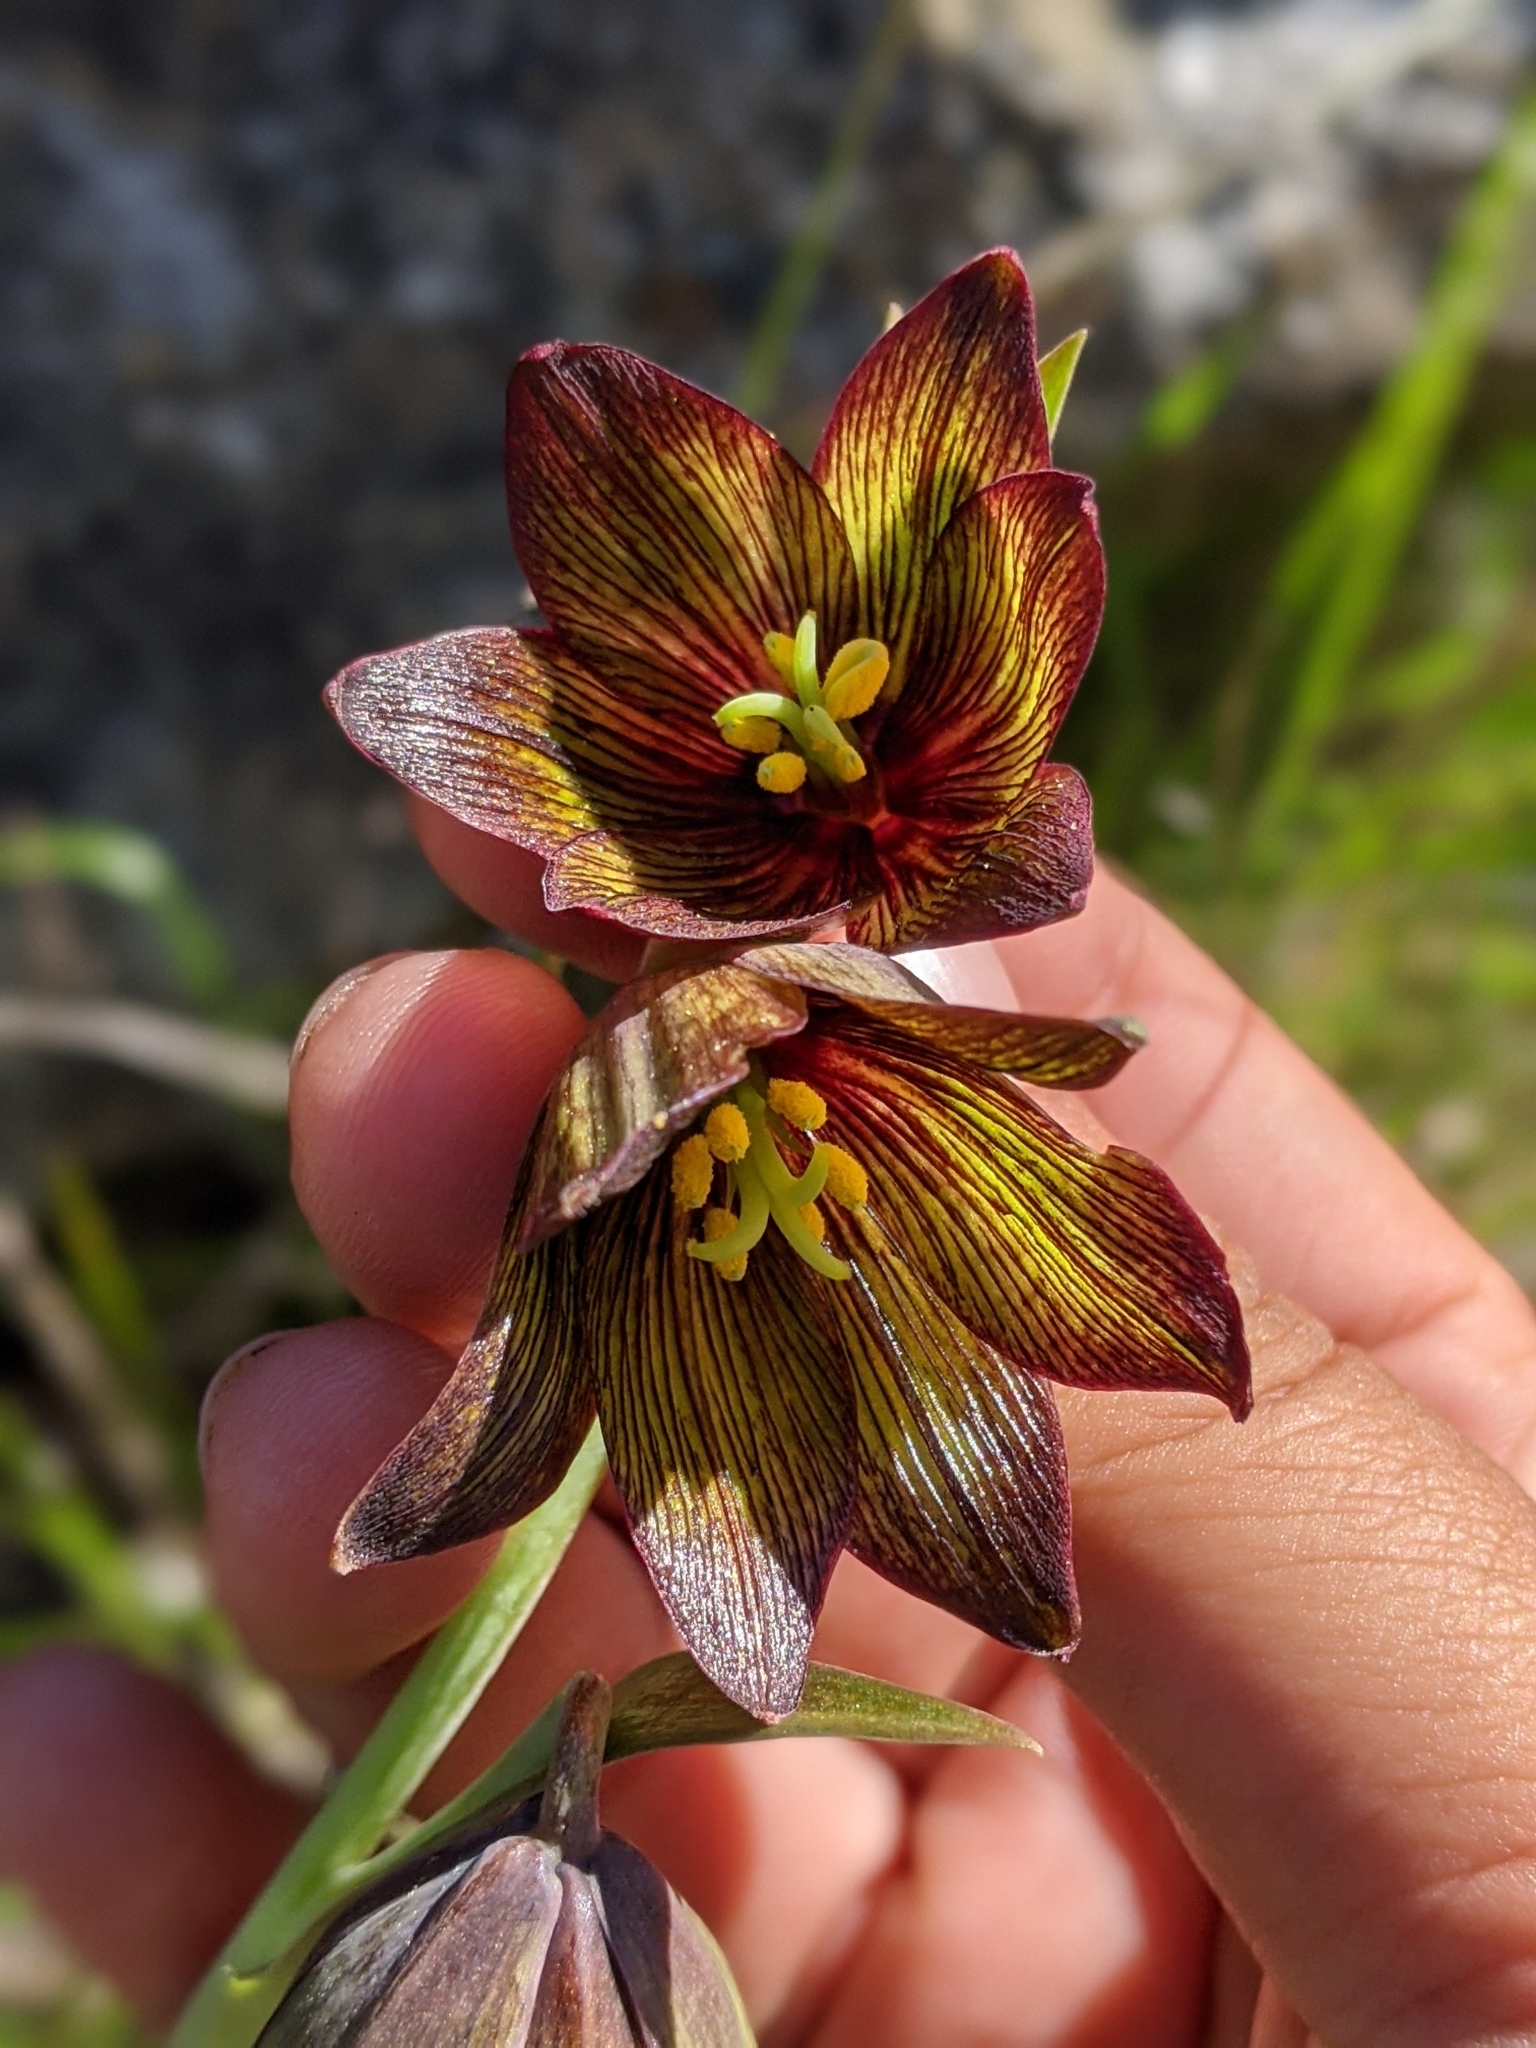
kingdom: Plantae
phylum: Tracheophyta
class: Liliopsida
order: Liliales
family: Liliaceae
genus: Fritillaria
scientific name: Fritillaria biflora
